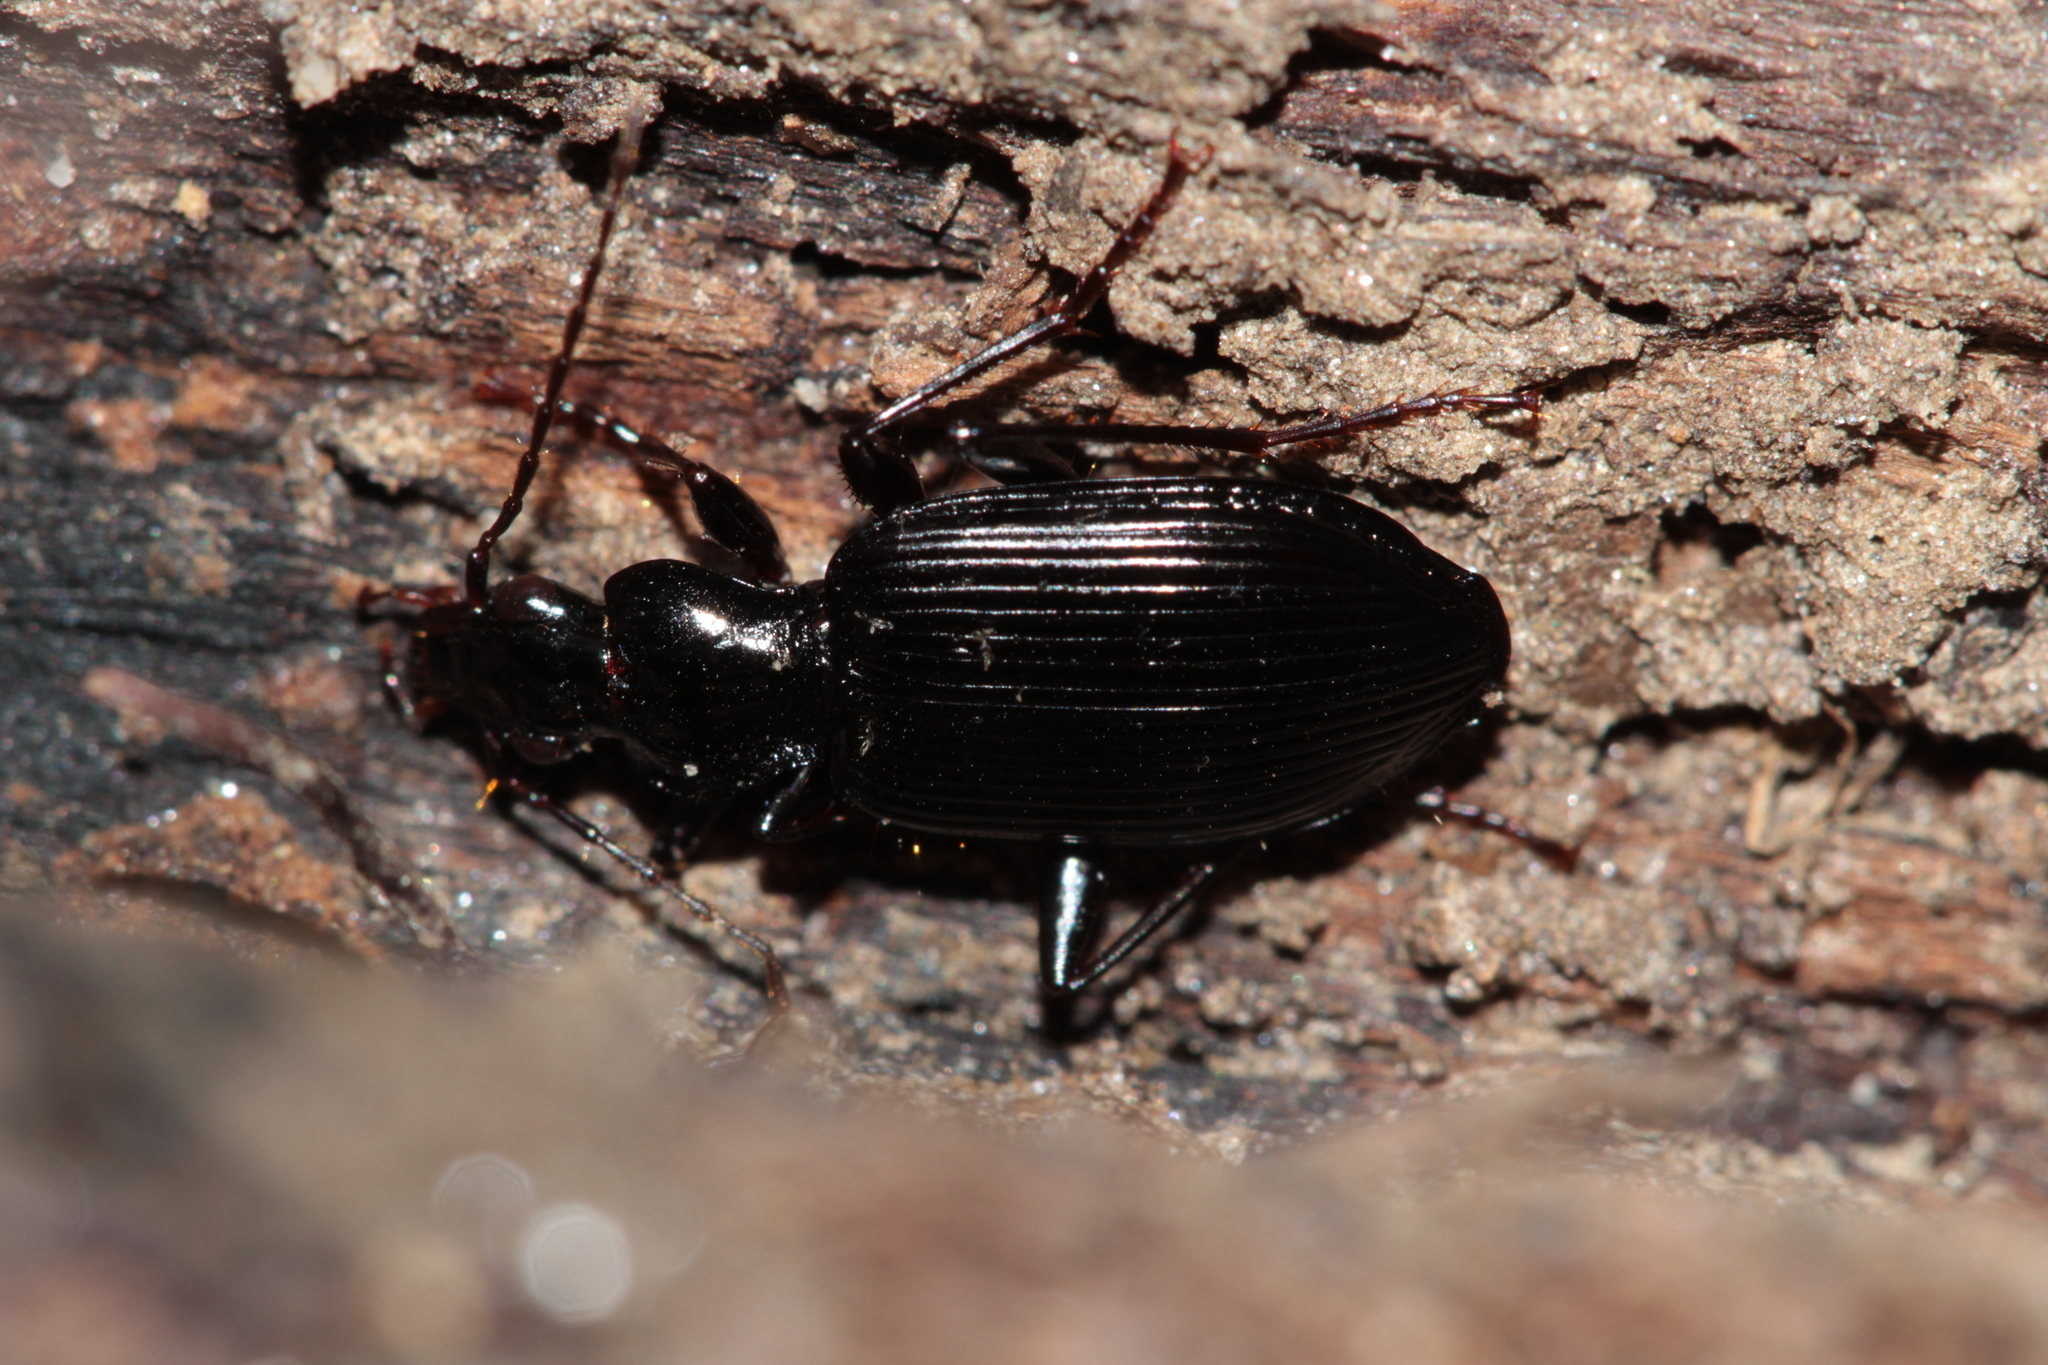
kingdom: Animalia
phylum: Arthropoda
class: Insecta
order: Coleoptera
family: Carabidae
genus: Platynus
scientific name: Platynus assimilis
